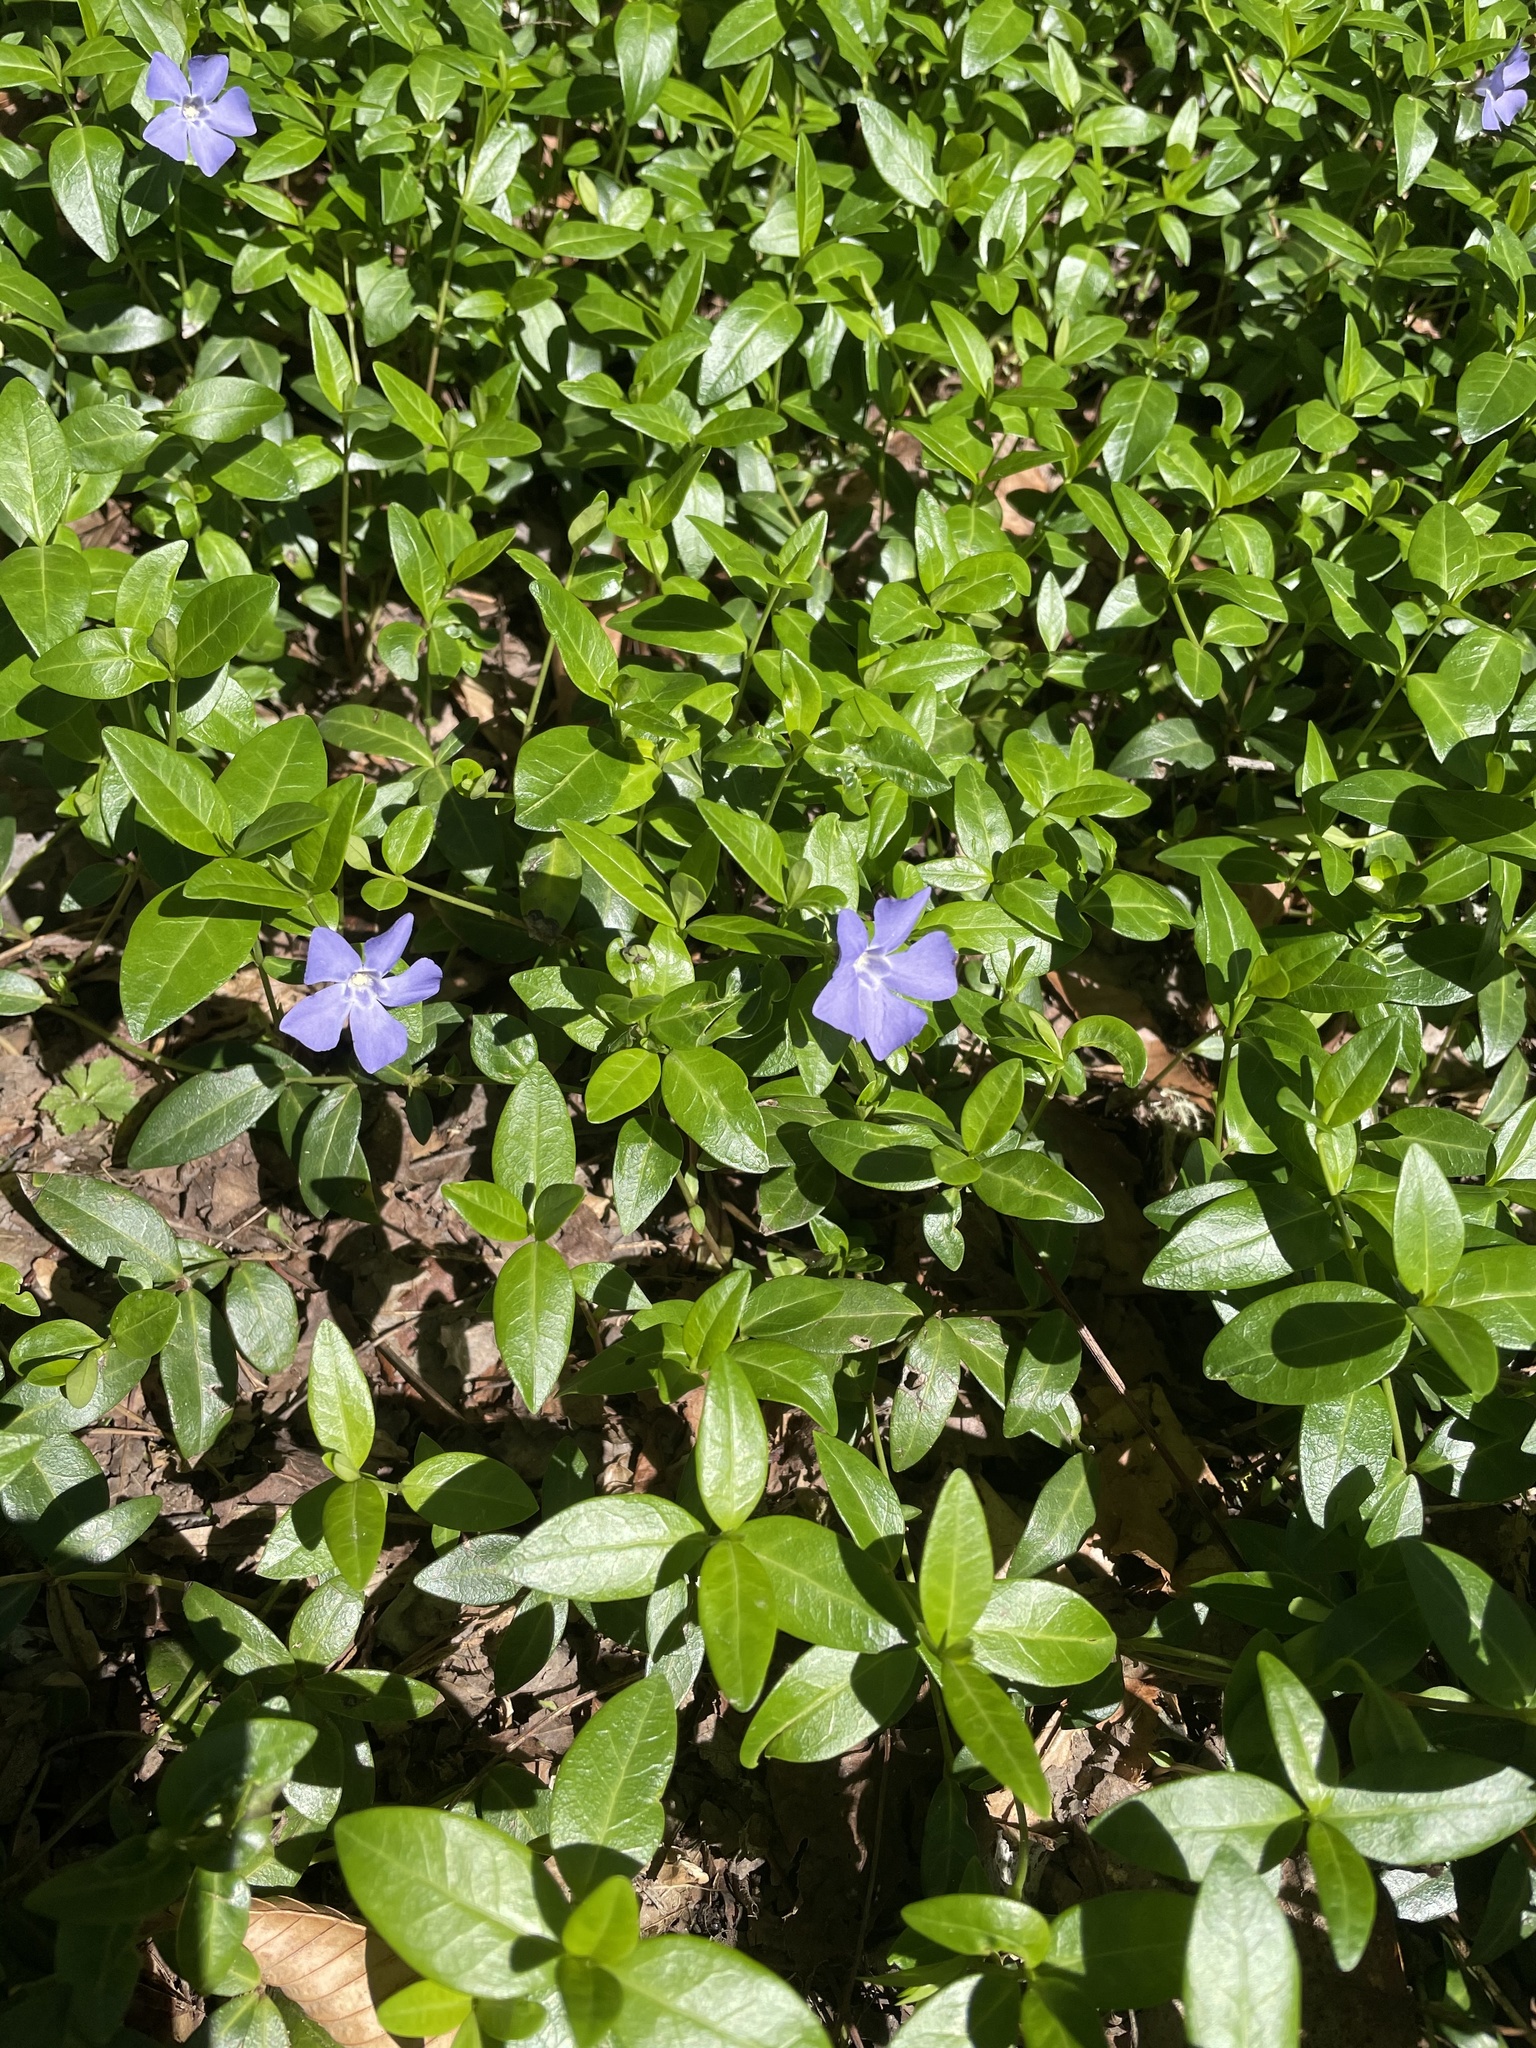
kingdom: Plantae
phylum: Tracheophyta
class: Magnoliopsida
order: Gentianales
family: Apocynaceae
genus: Vinca
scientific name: Vinca minor
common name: Lesser periwinkle
